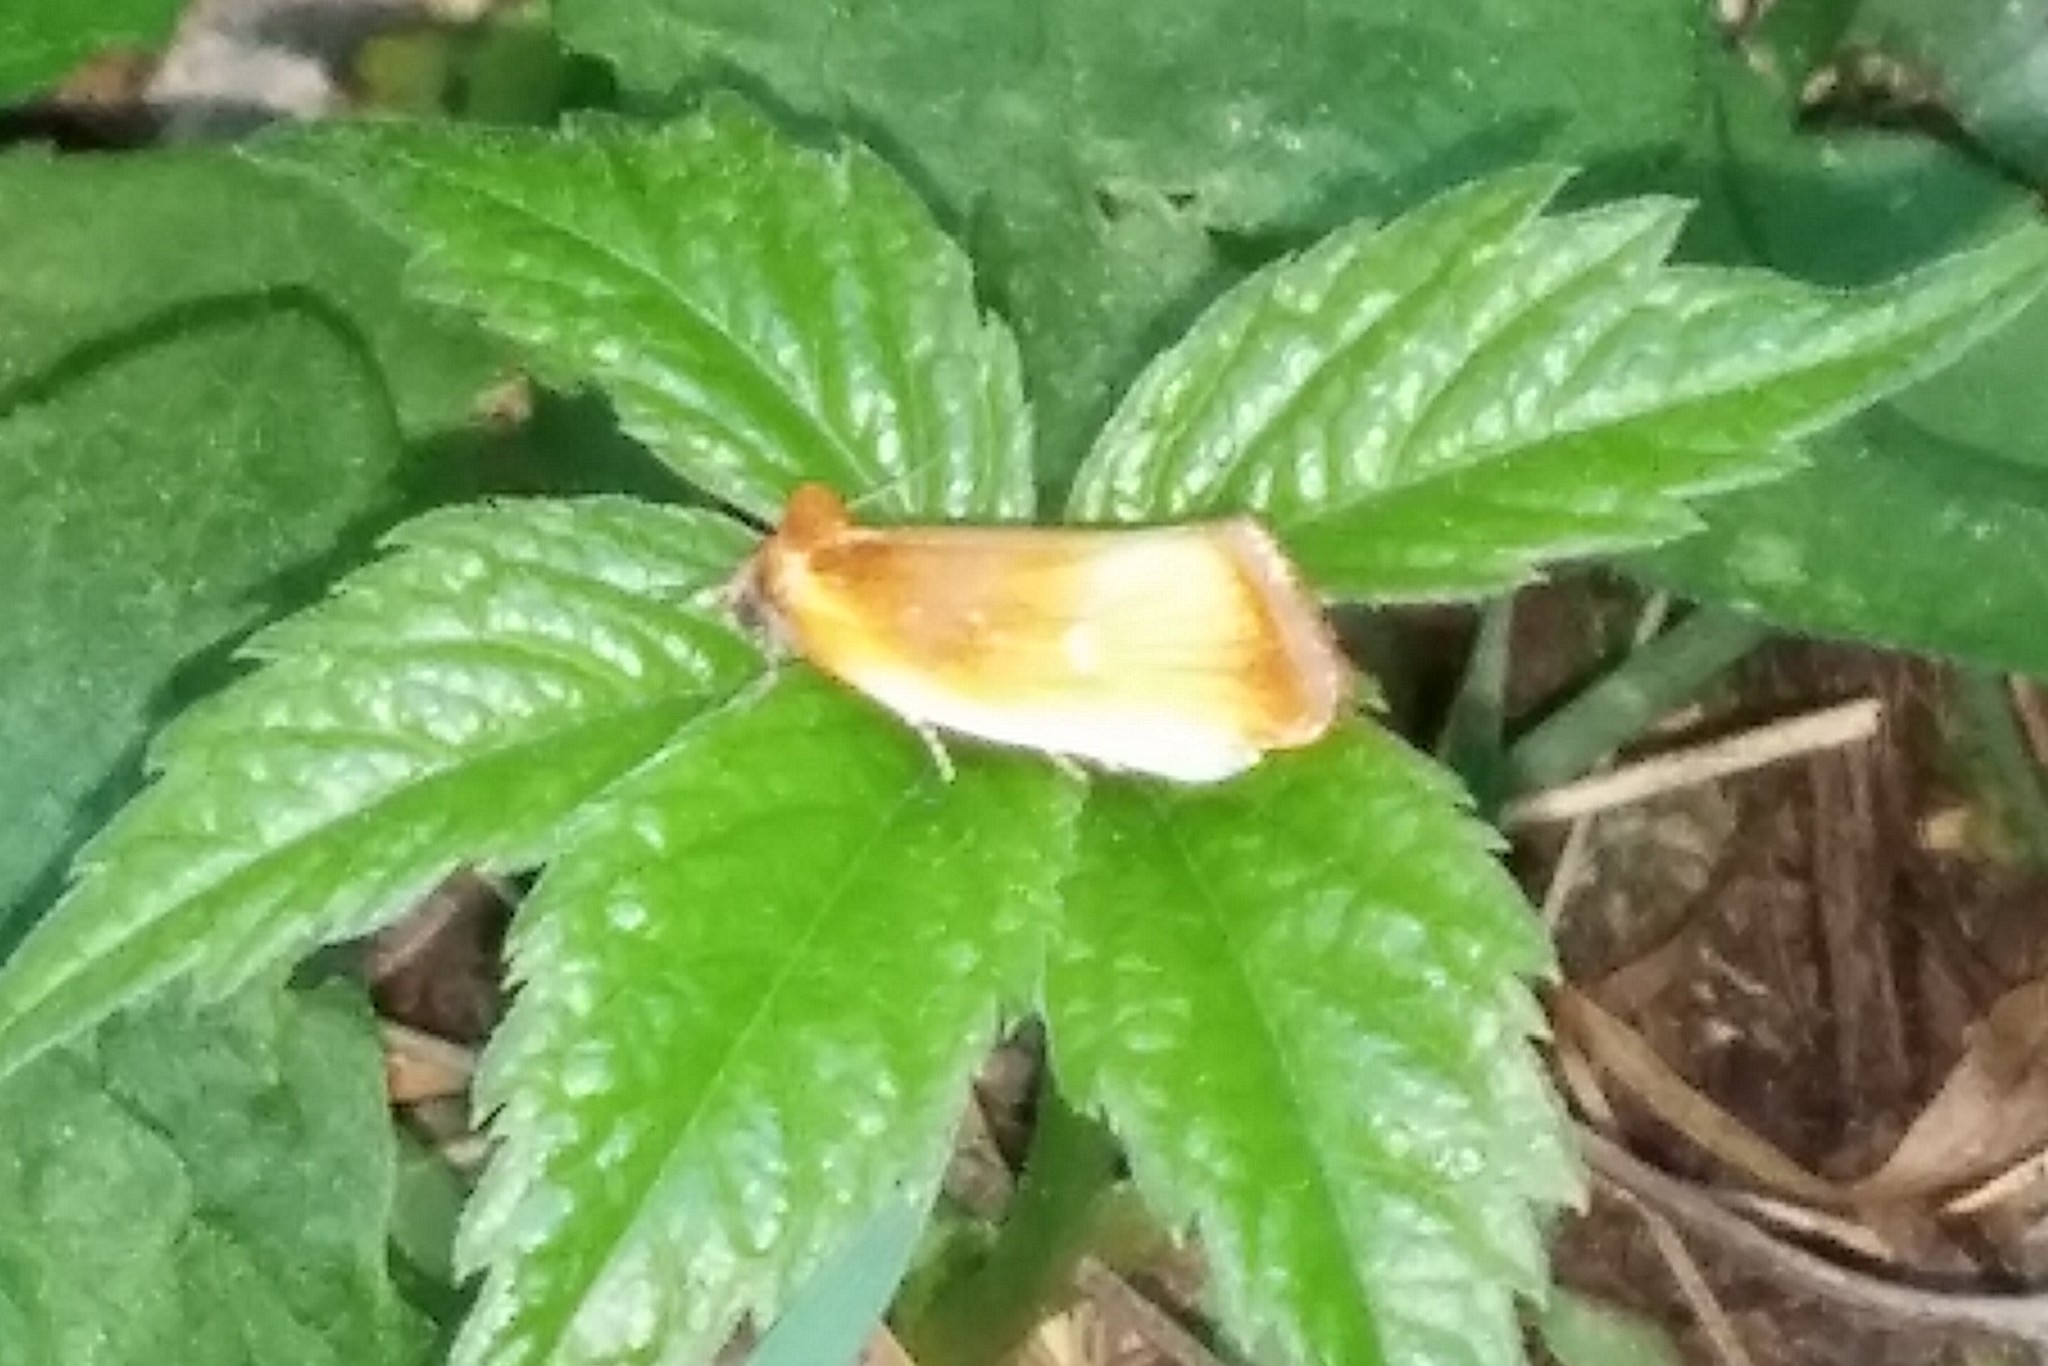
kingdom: Animalia
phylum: Arthropoda
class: Insecta
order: Lepidoptera
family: Tortricidae
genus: Eulia
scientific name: Eulia ministrana
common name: Brassy twist
